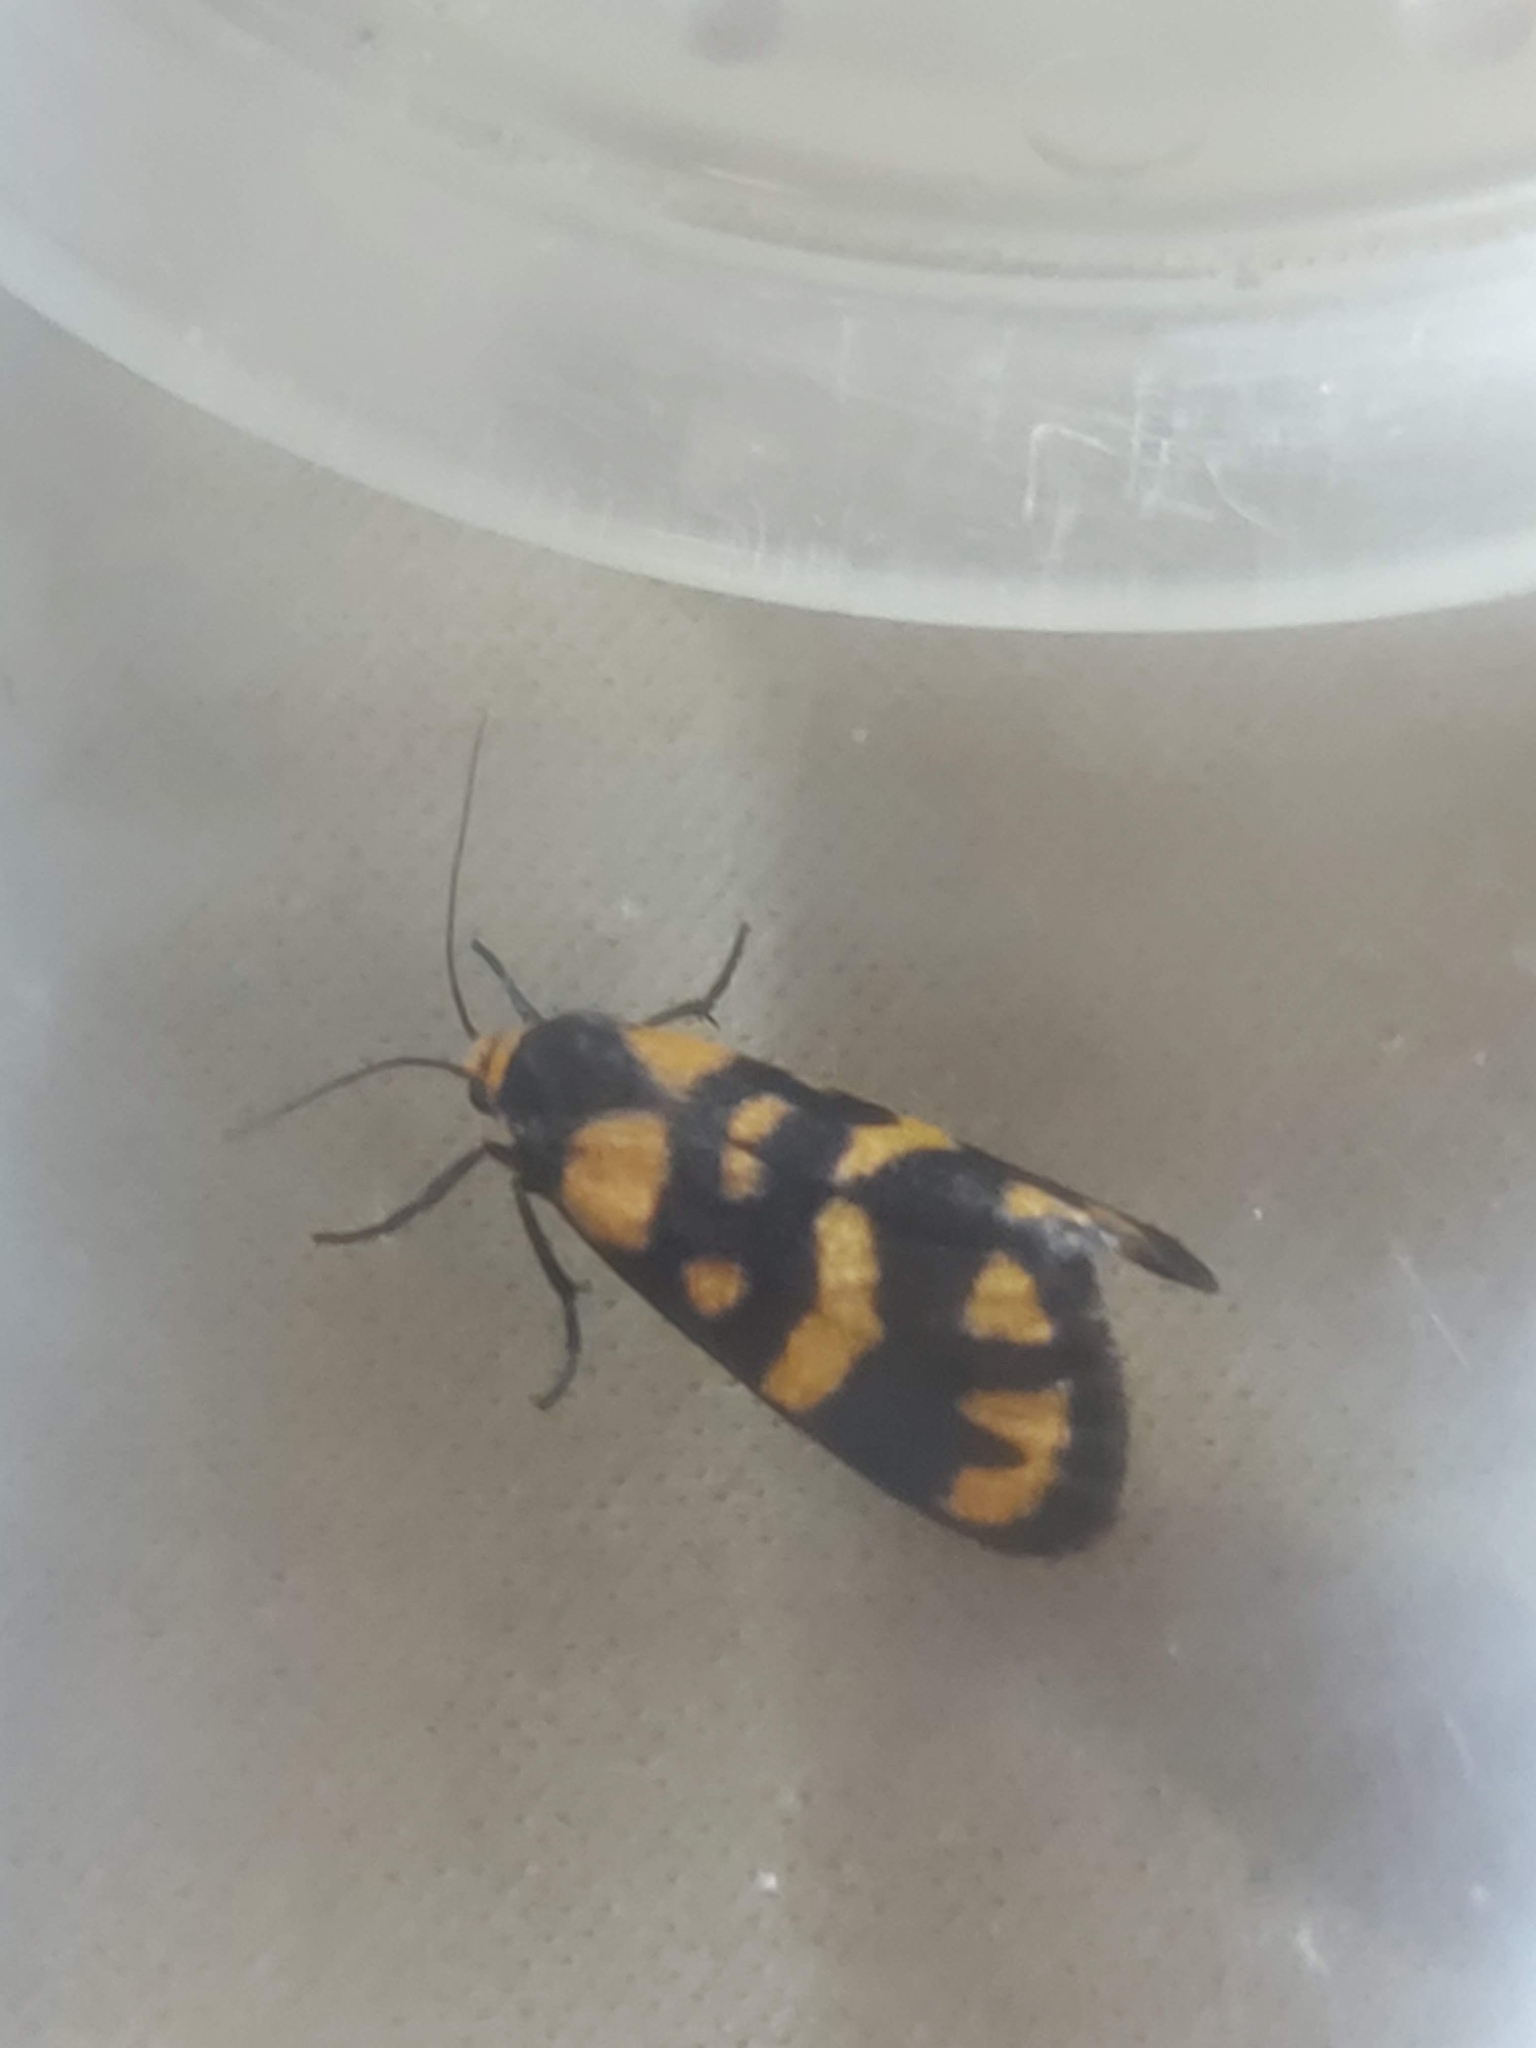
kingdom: Animalia
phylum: Arthropoda
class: Insecta
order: Lepidoptera
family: Erebidae
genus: Asura
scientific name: Asura terminalis
